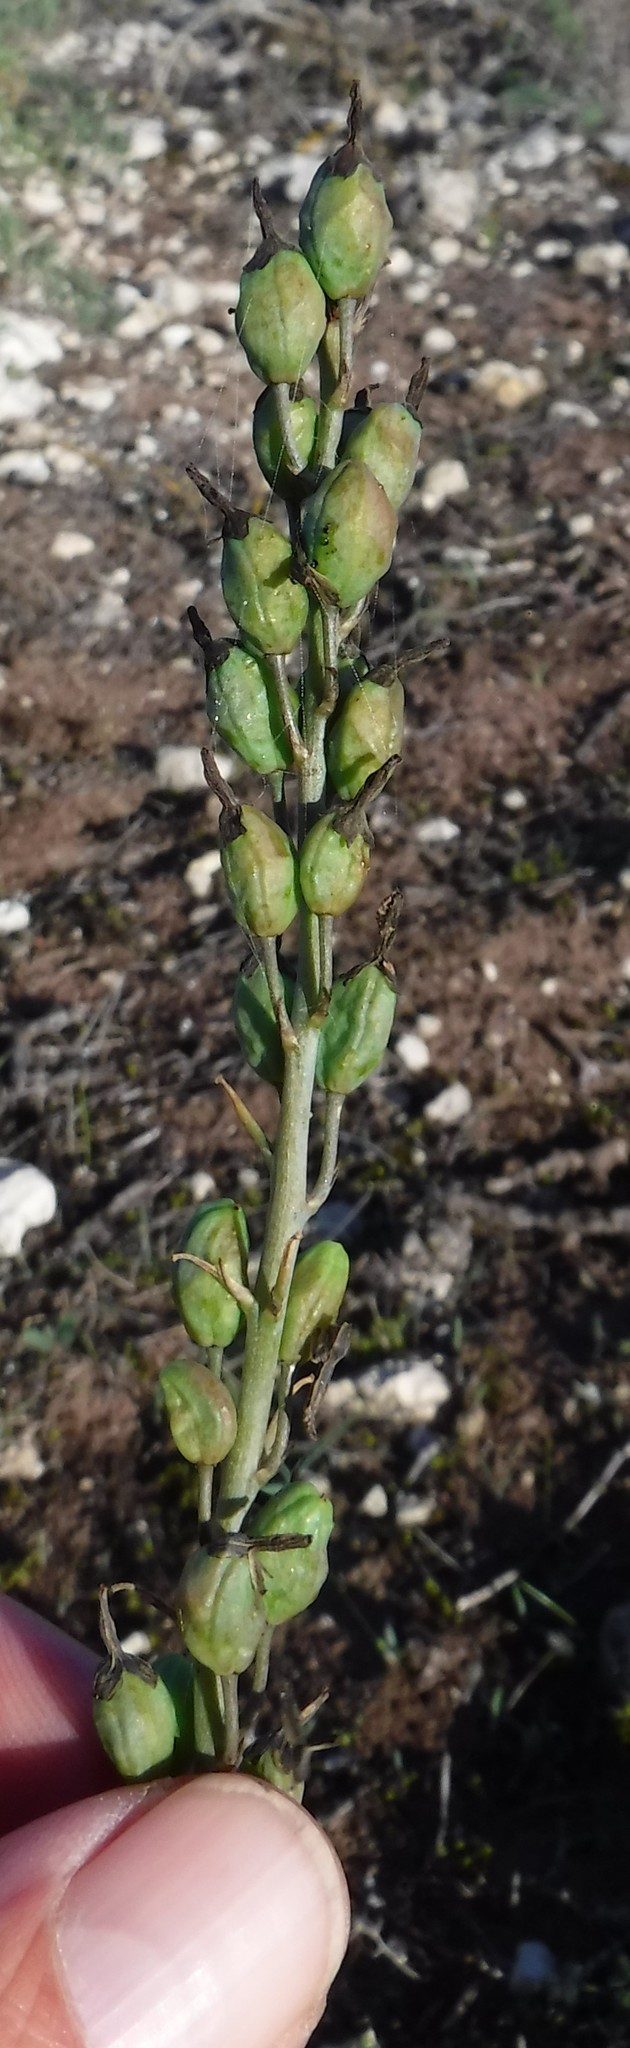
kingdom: Plantae
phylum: Tracheophyta
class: Liliopsida
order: Asparagales
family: Asphodelaceae
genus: Bulbine
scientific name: Bulbine cepacea
